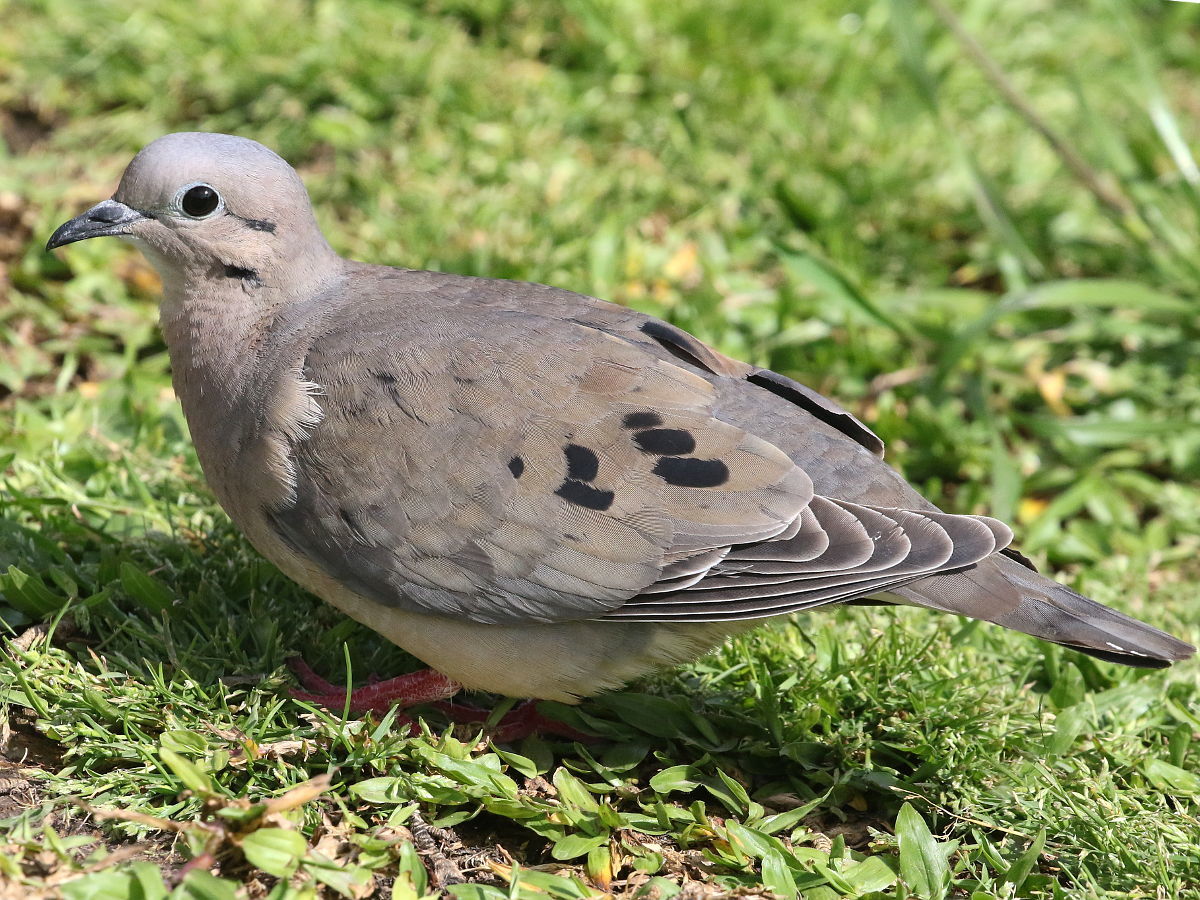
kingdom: Animalia
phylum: Chordata
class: Aves
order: Columbiformes
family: Columbidae
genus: Zenaida
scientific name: Zenaida auriculata
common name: Eared dove
